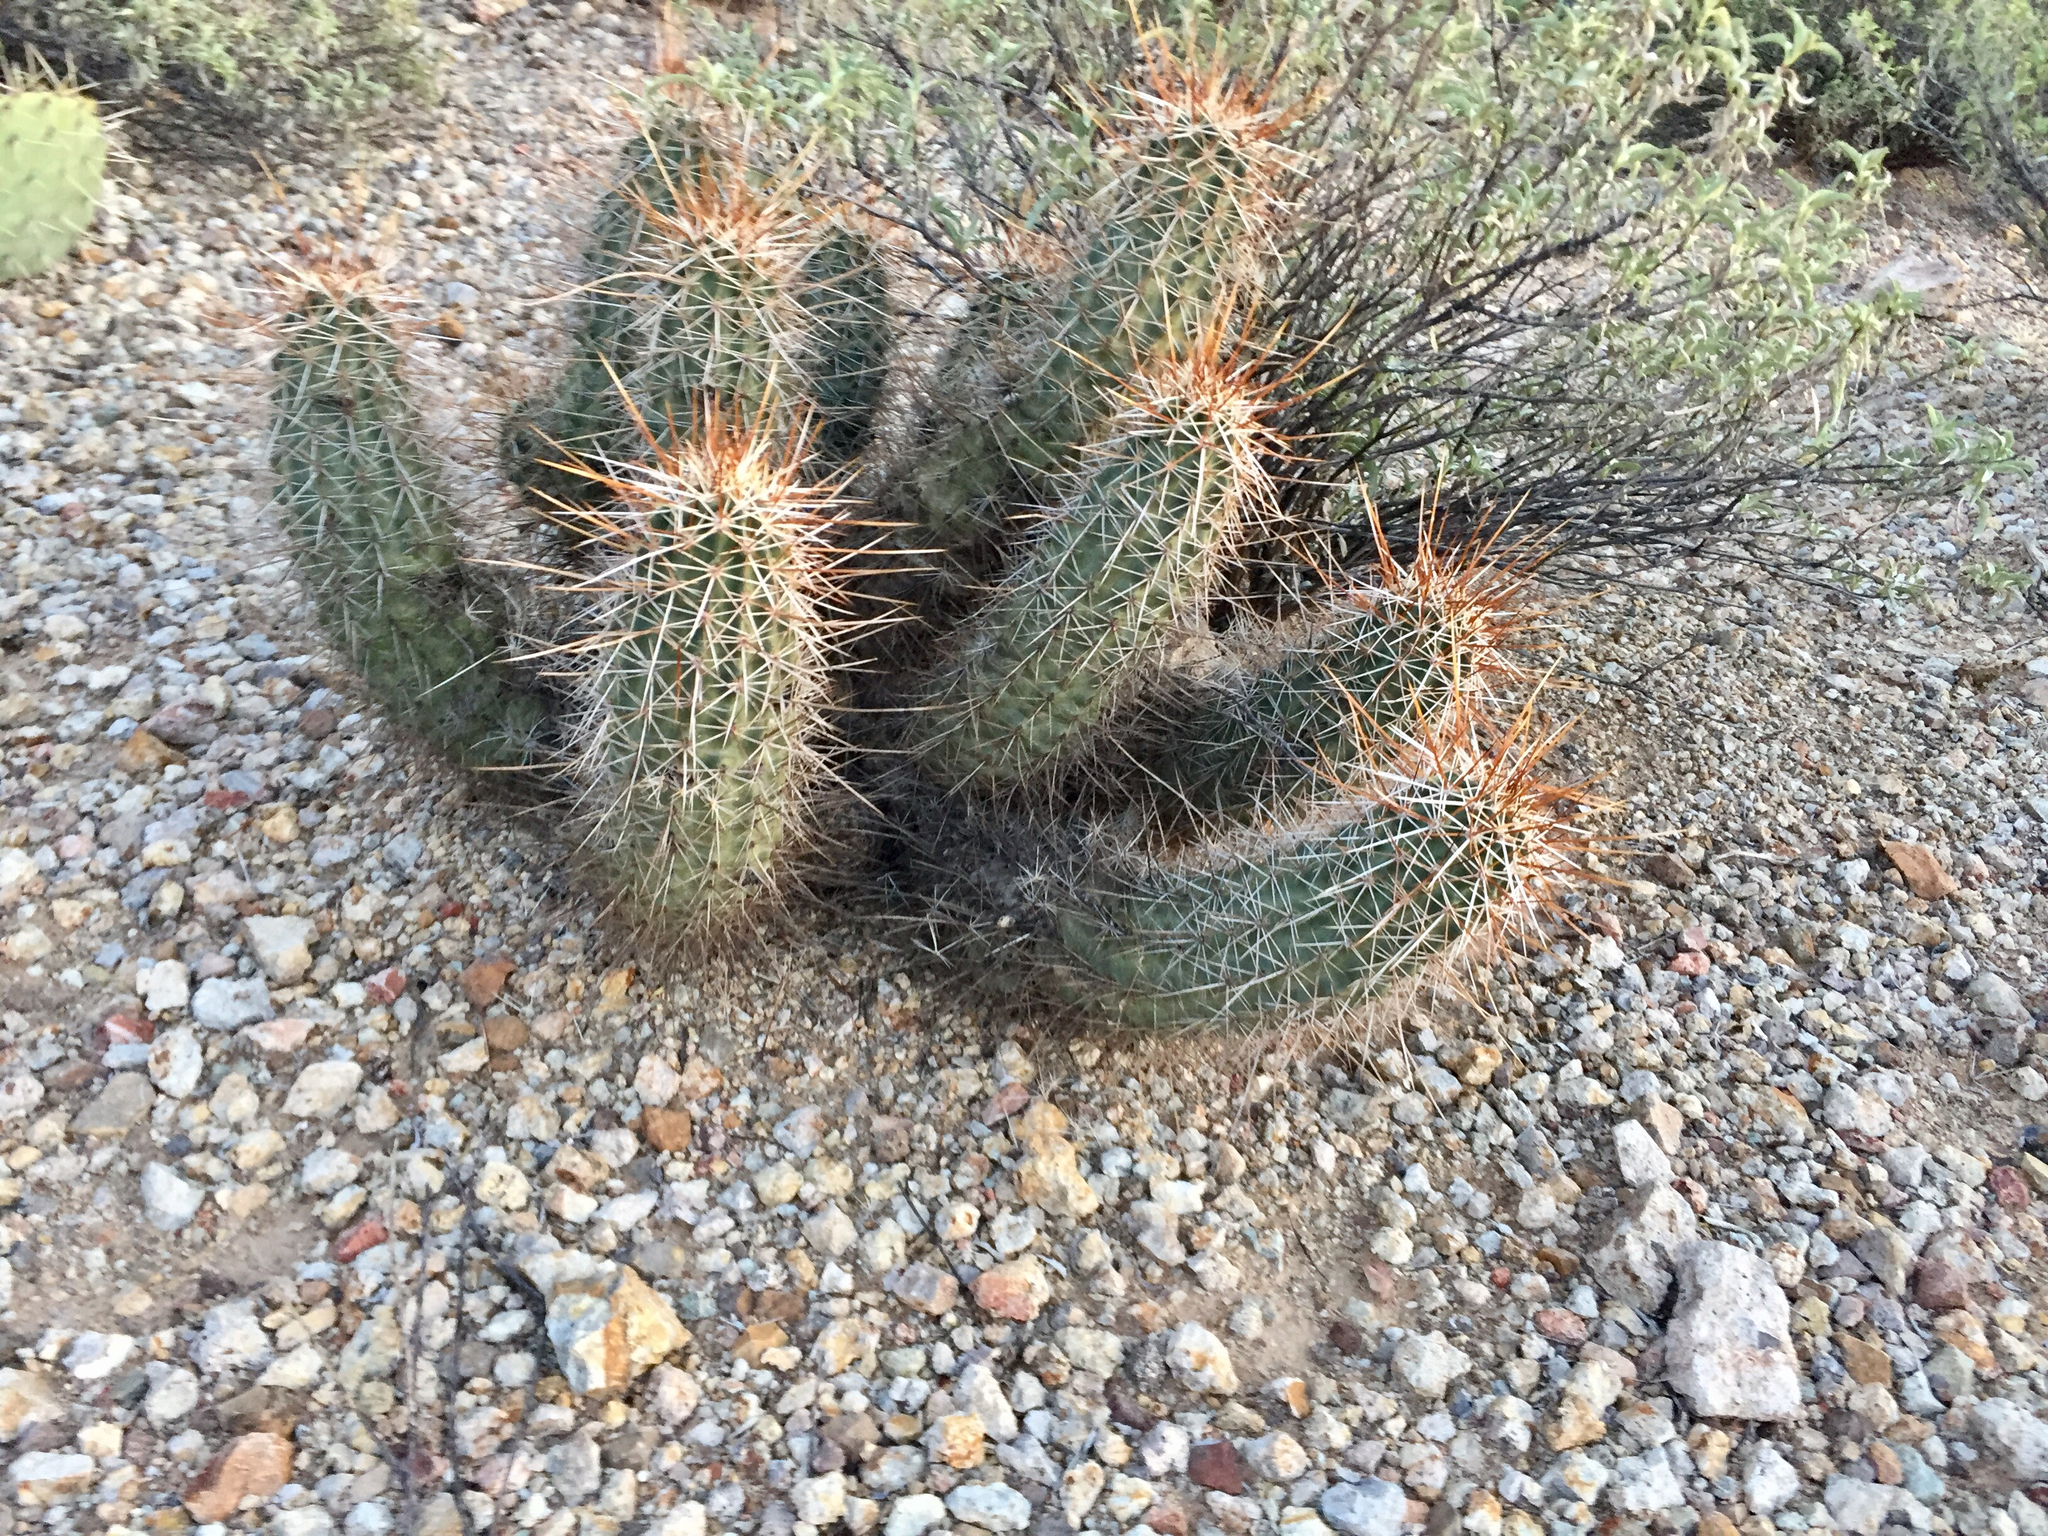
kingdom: Plantae
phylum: Tracheophyta
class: Magnoliopsida
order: Caryophyllales
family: Cactaceae
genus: Echinocereus
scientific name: Echinocereus fasciculatus
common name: Bundle hedgehog
